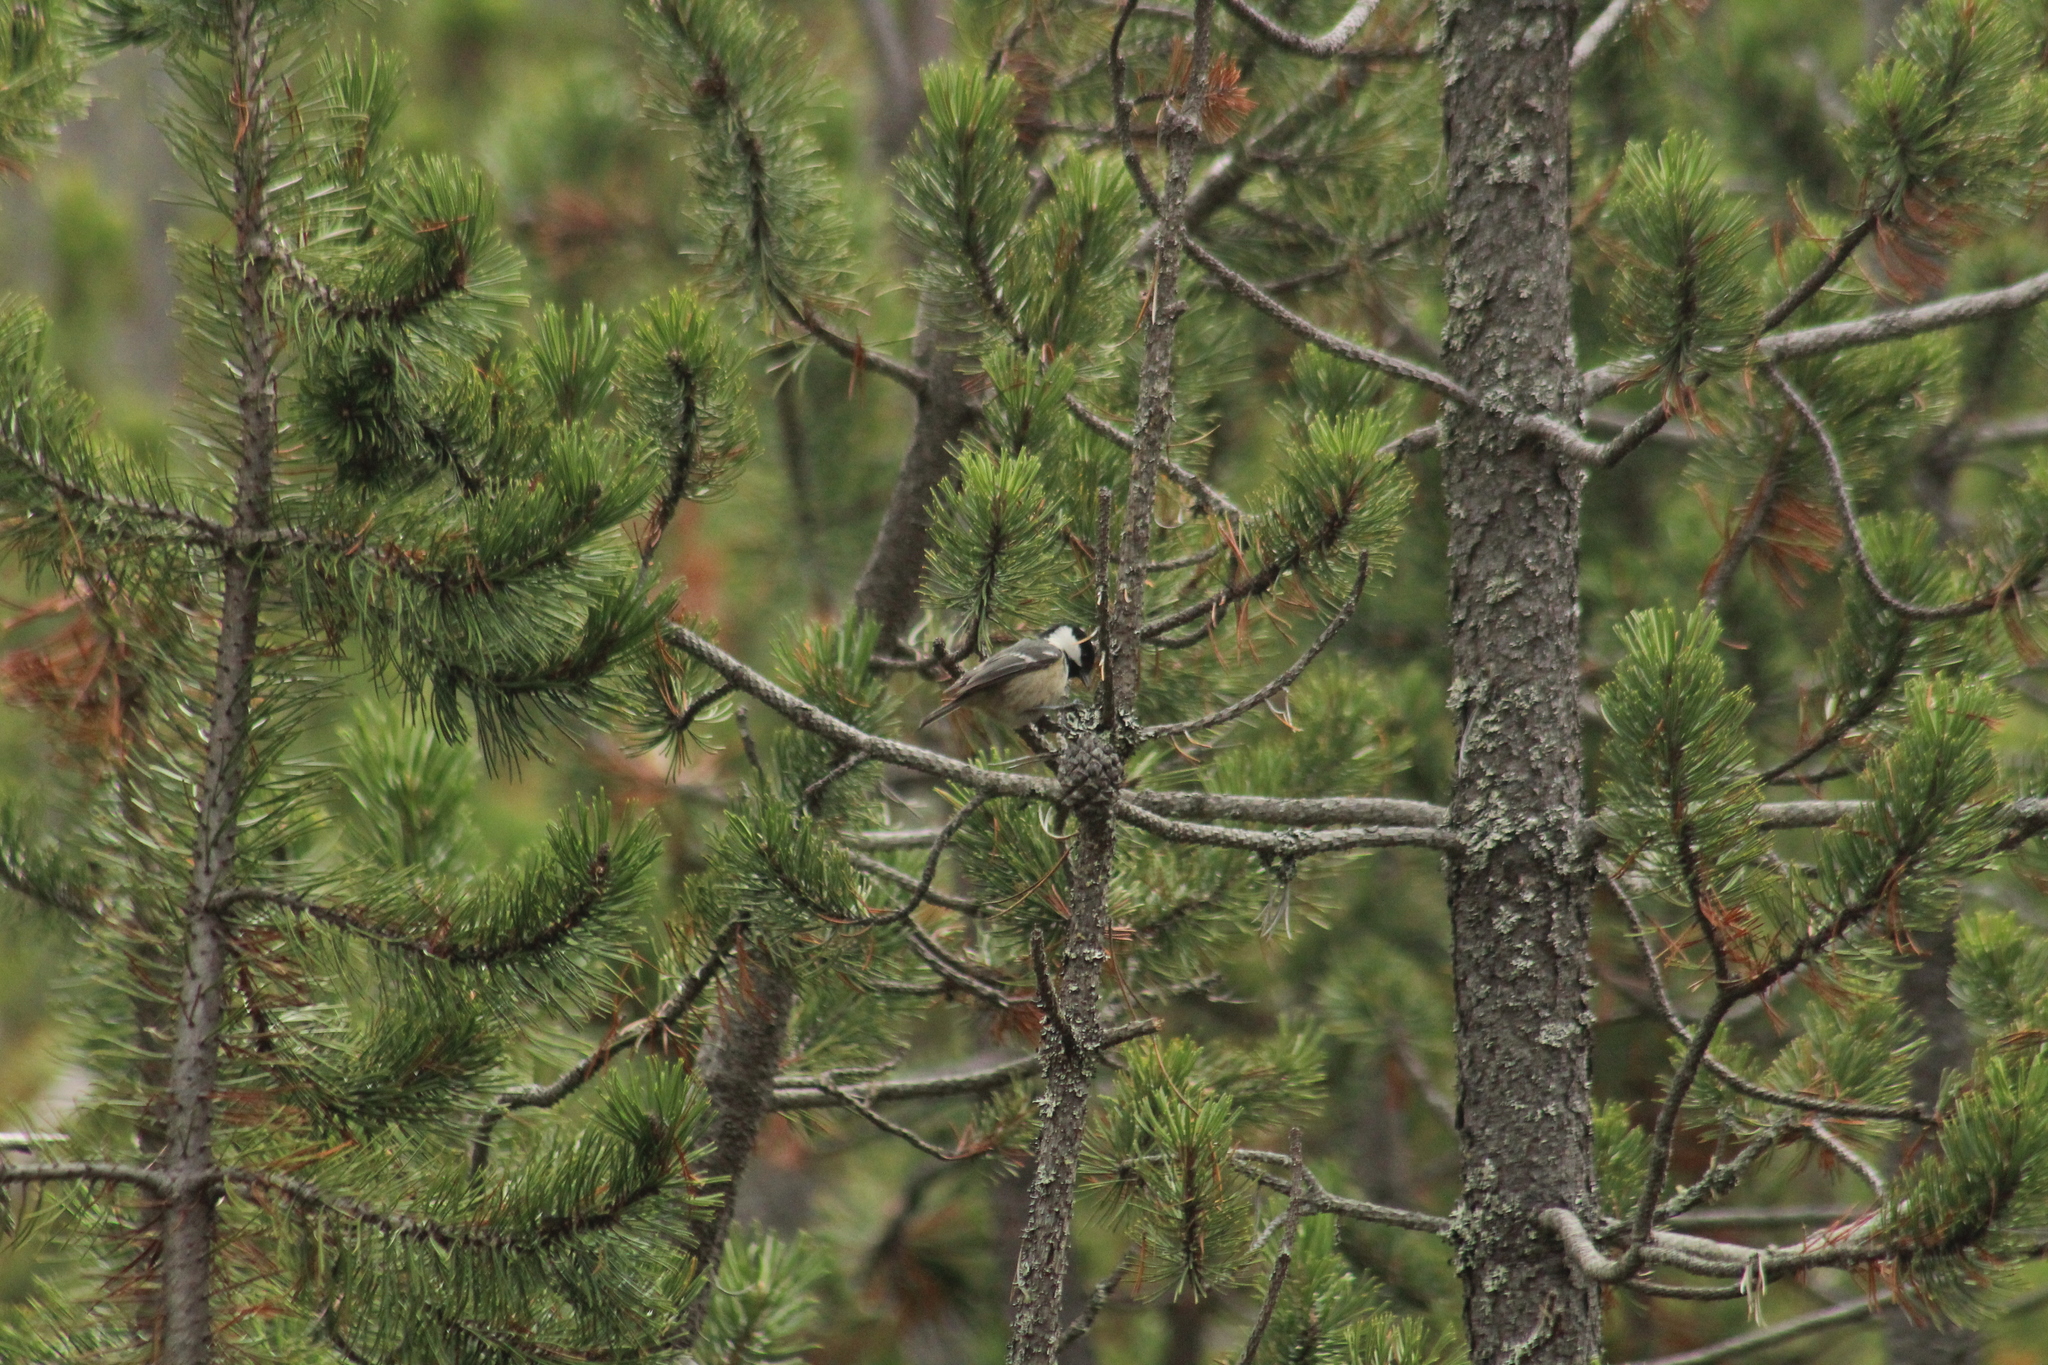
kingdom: Animalia
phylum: Chordata
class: Aves
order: Passeriformes
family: Paridae
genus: Periparus
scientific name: Periparus ater
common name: Coal tit
